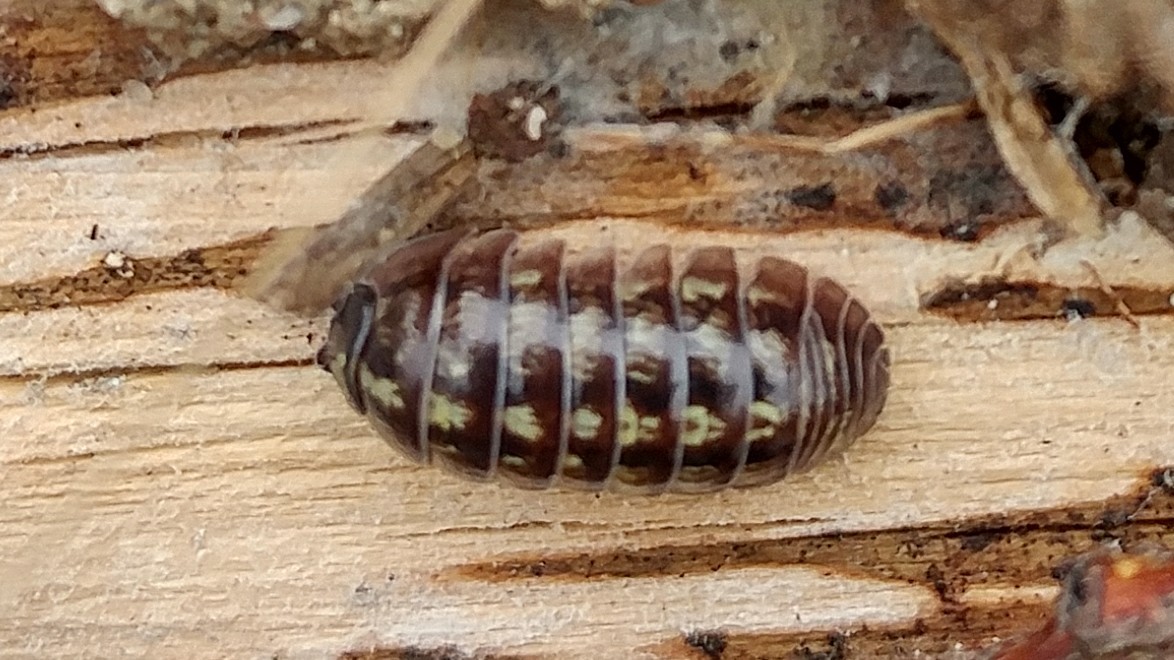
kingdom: Animalia
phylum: Arthropoda
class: Malacostraca
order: Isopoda
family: Armadillidiidae
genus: Armadillidium
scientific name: Armadillidium vulgare
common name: Common pill woodlouse
